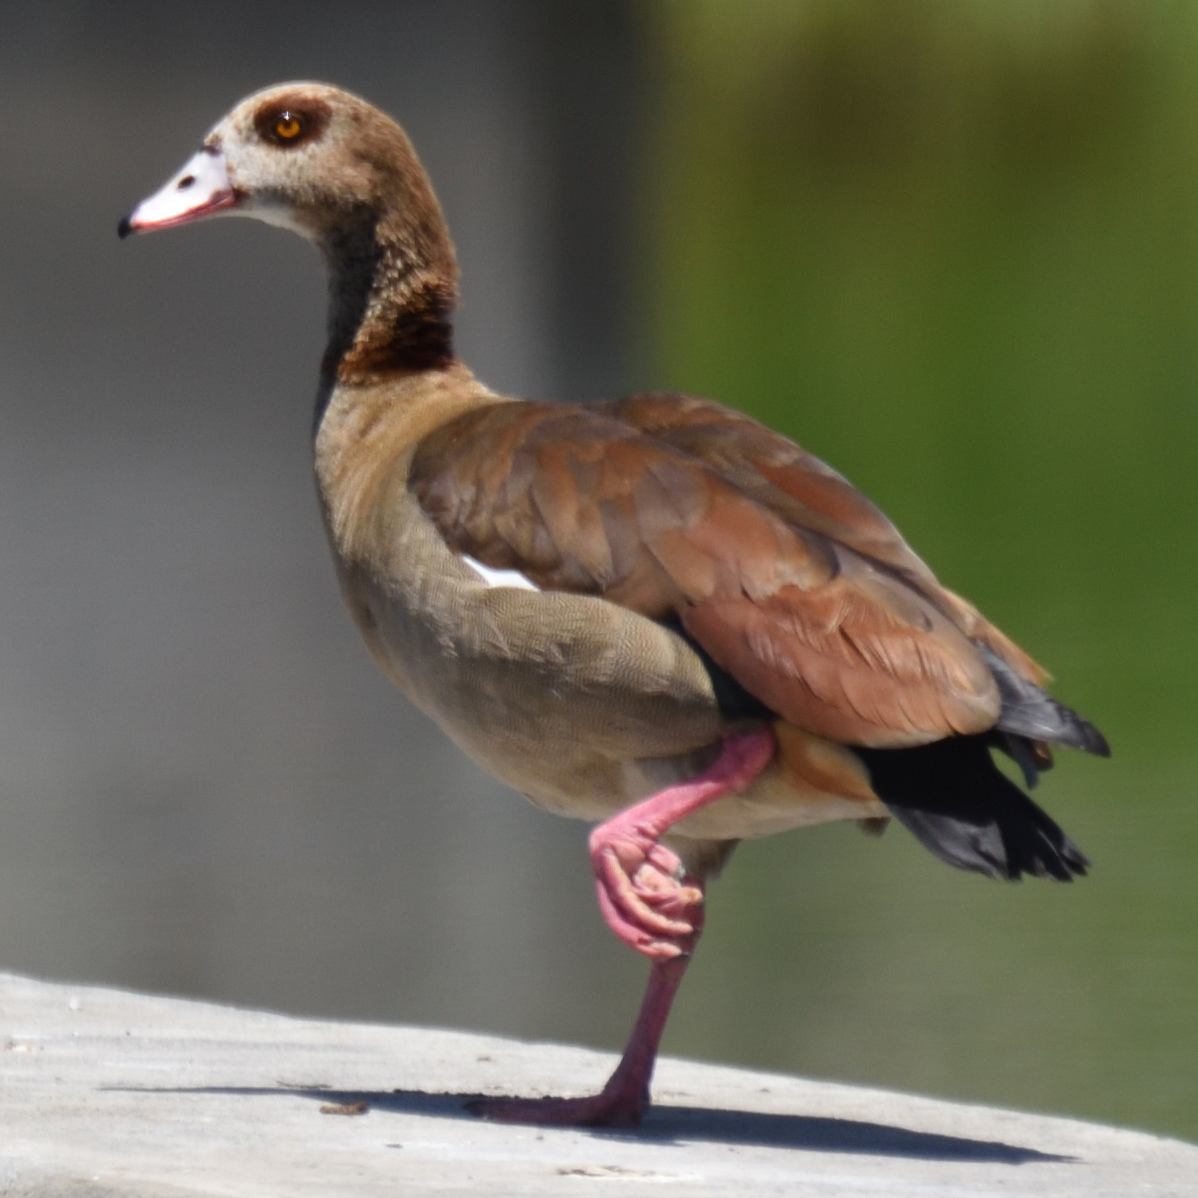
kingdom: Animalia
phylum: Chordata
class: Aves
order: Anseriformes
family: Anatidae
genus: Alopochen
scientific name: Alopochen aegyptiaca
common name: Egyptian goose
